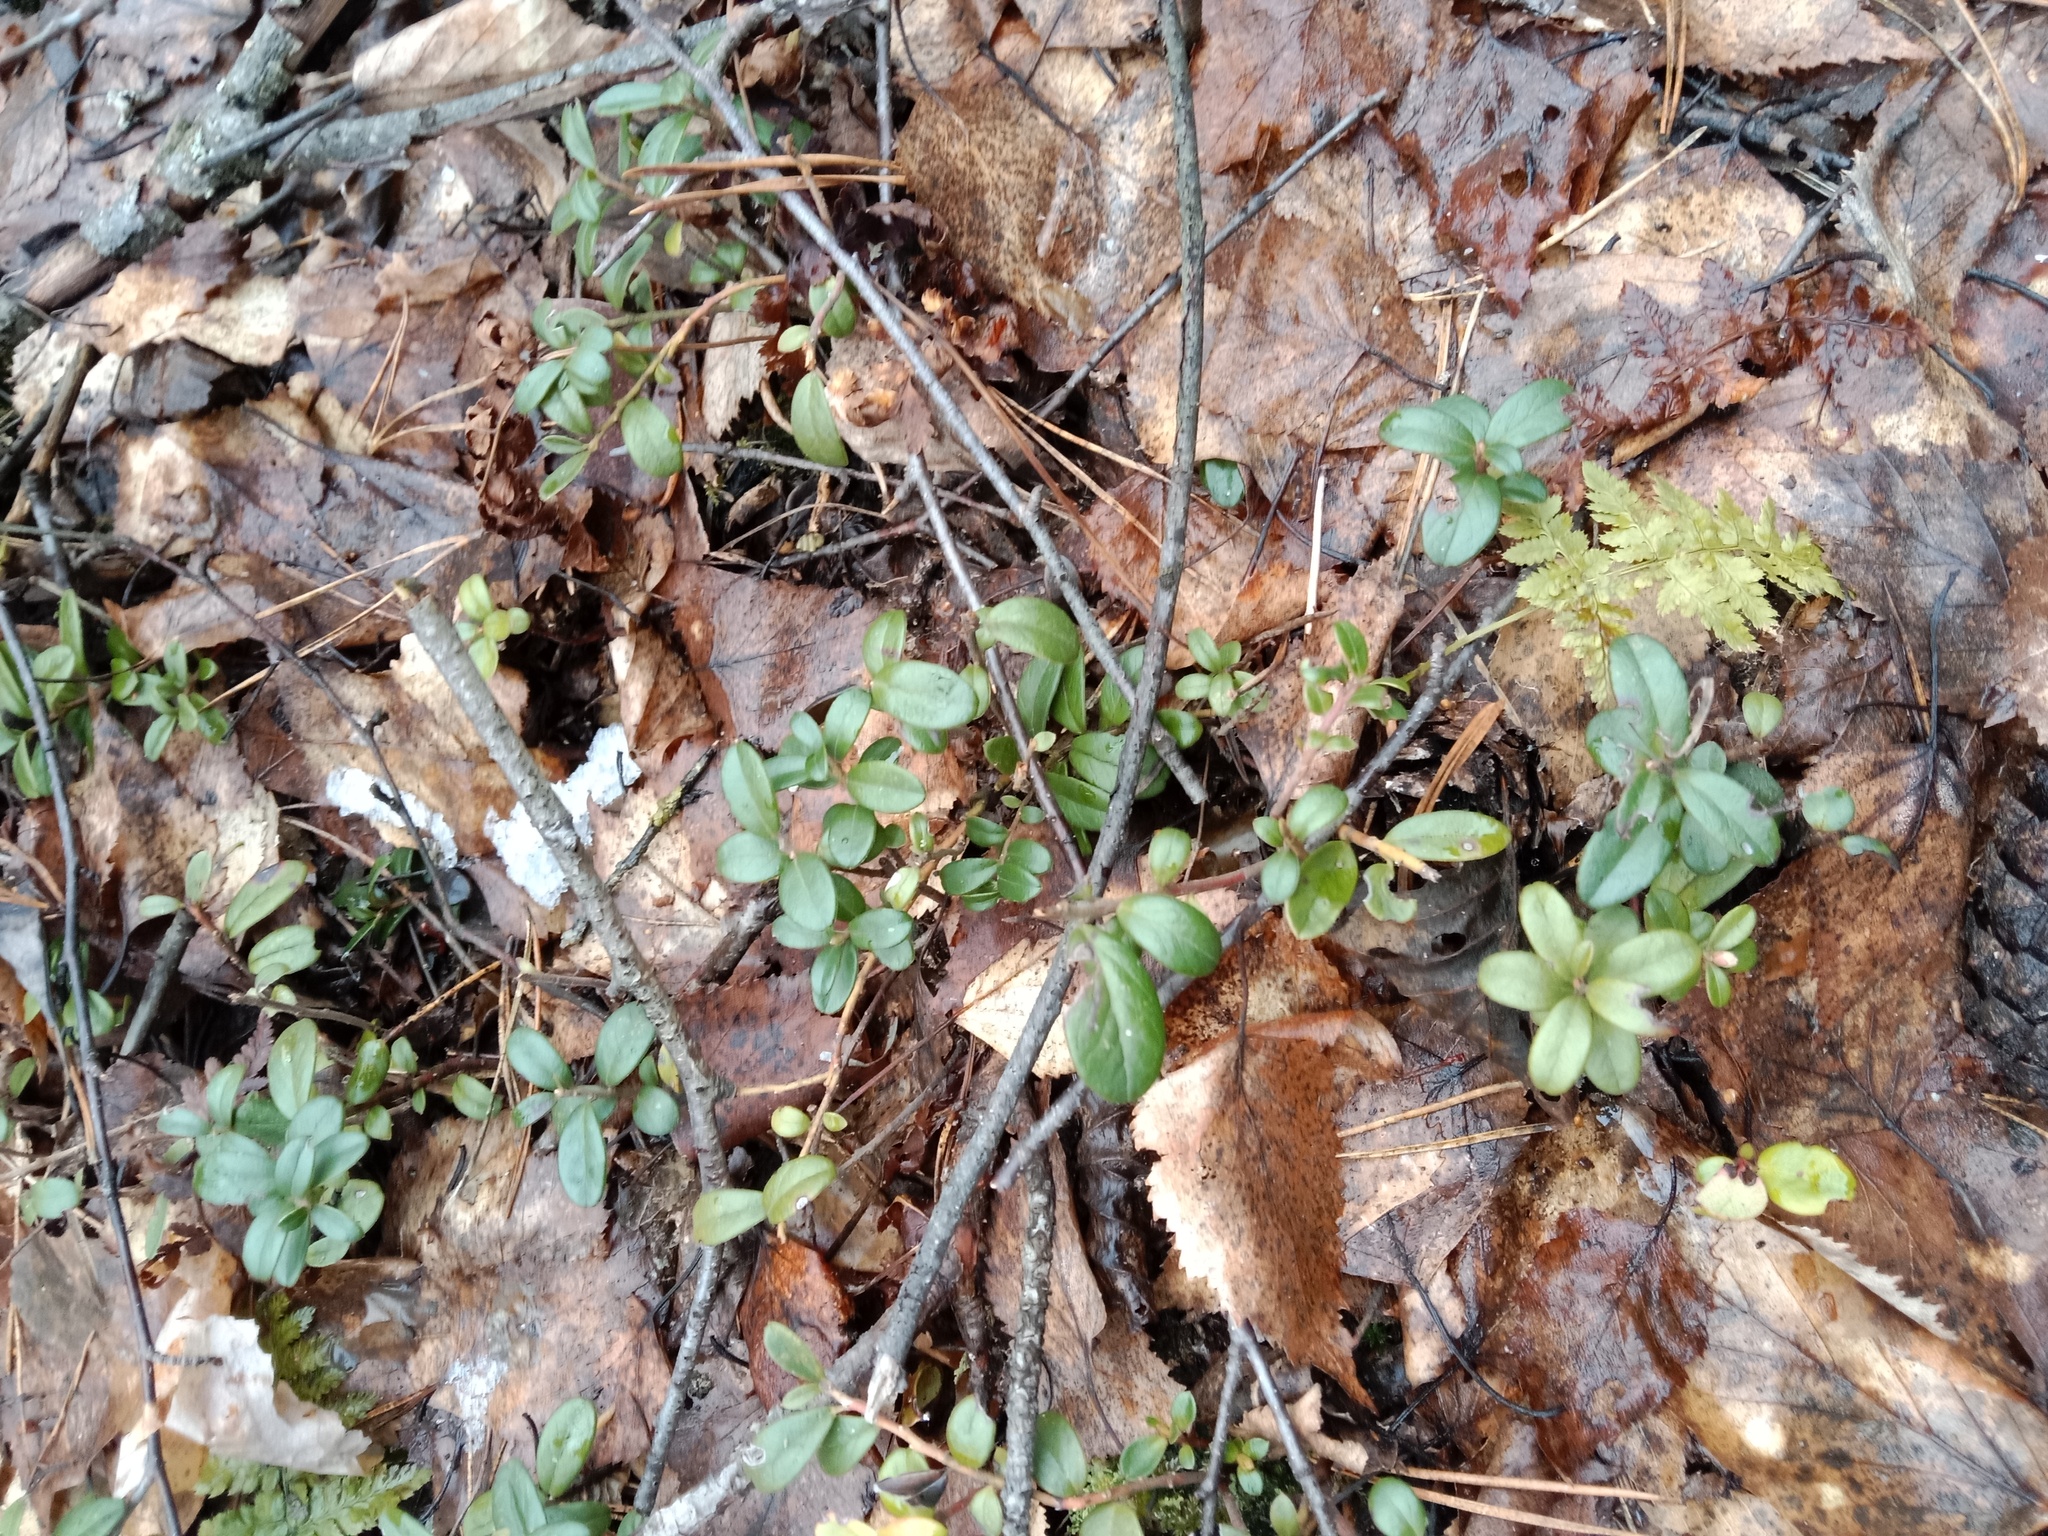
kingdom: Plantae
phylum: Tracheophyta
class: Magnoliopsida
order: Ericales
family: Ericaceae
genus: Vaccinium
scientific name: Vaccinium vitis-idaea
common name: Cowberry
